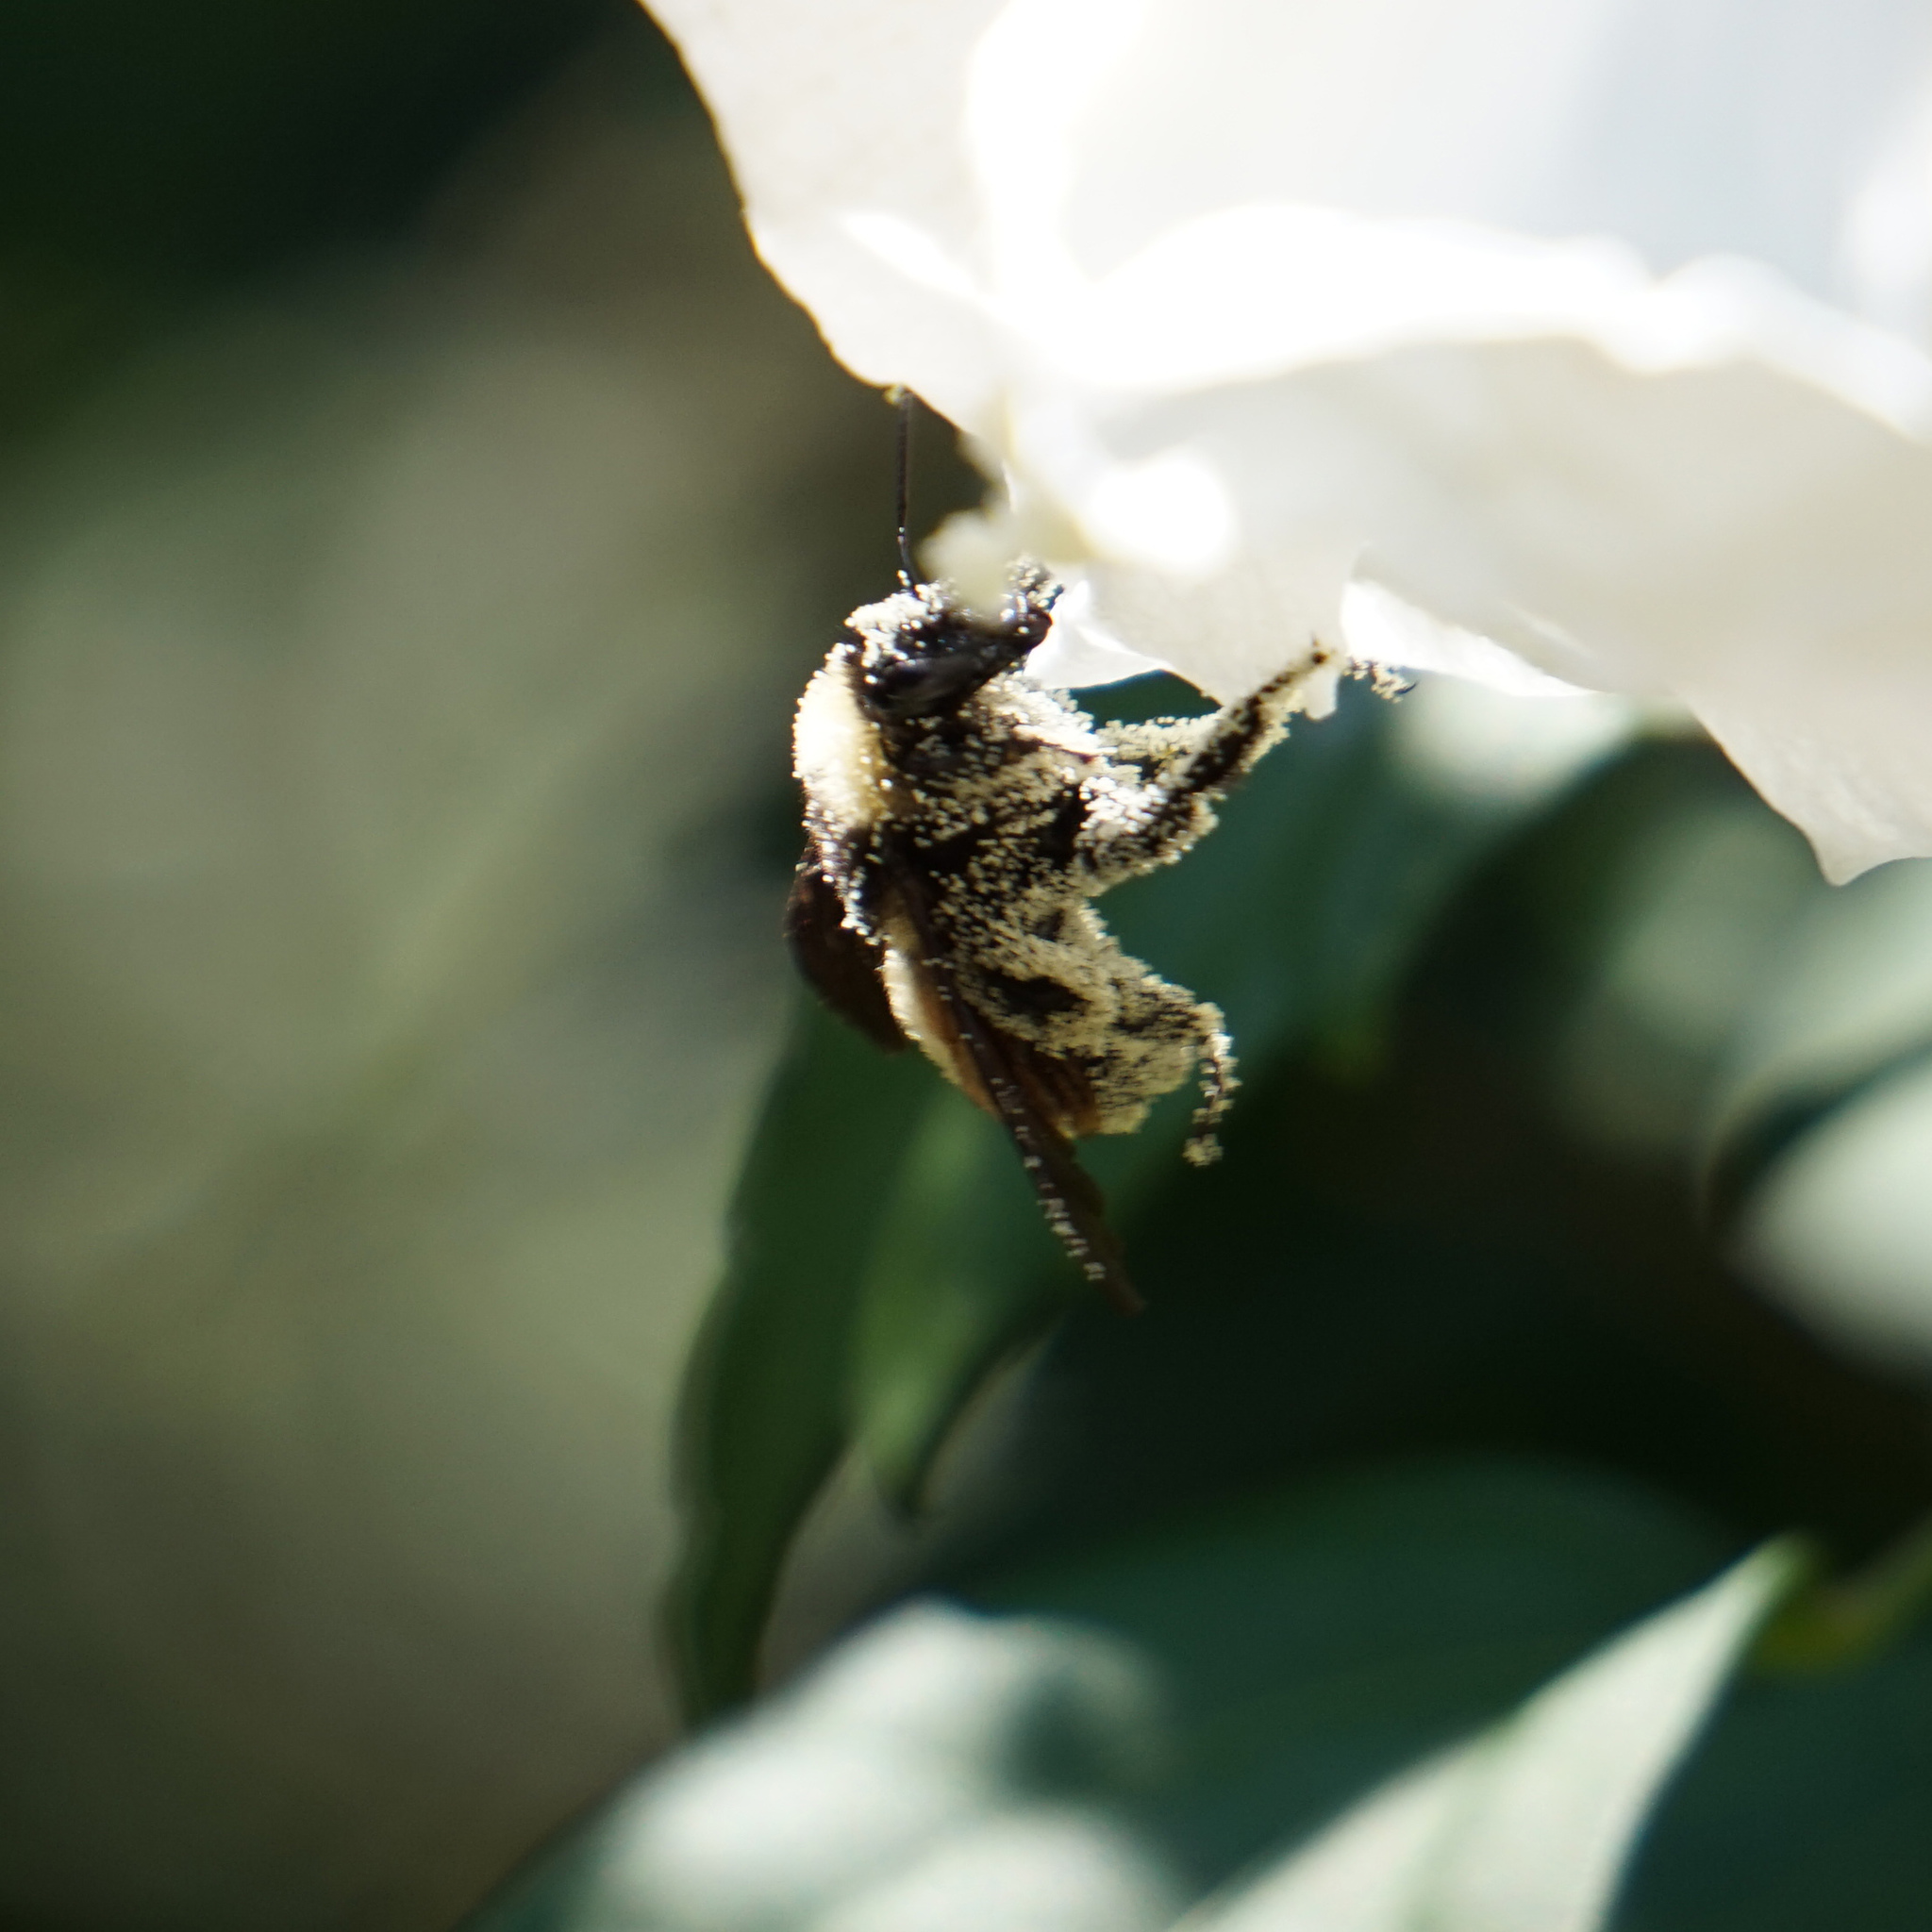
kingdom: Animalia
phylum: Arthropoda
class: Insecta
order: Hymenoptera
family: Apidae
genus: Bombus
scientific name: Bombus pensylvanicus
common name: Bumble bee
